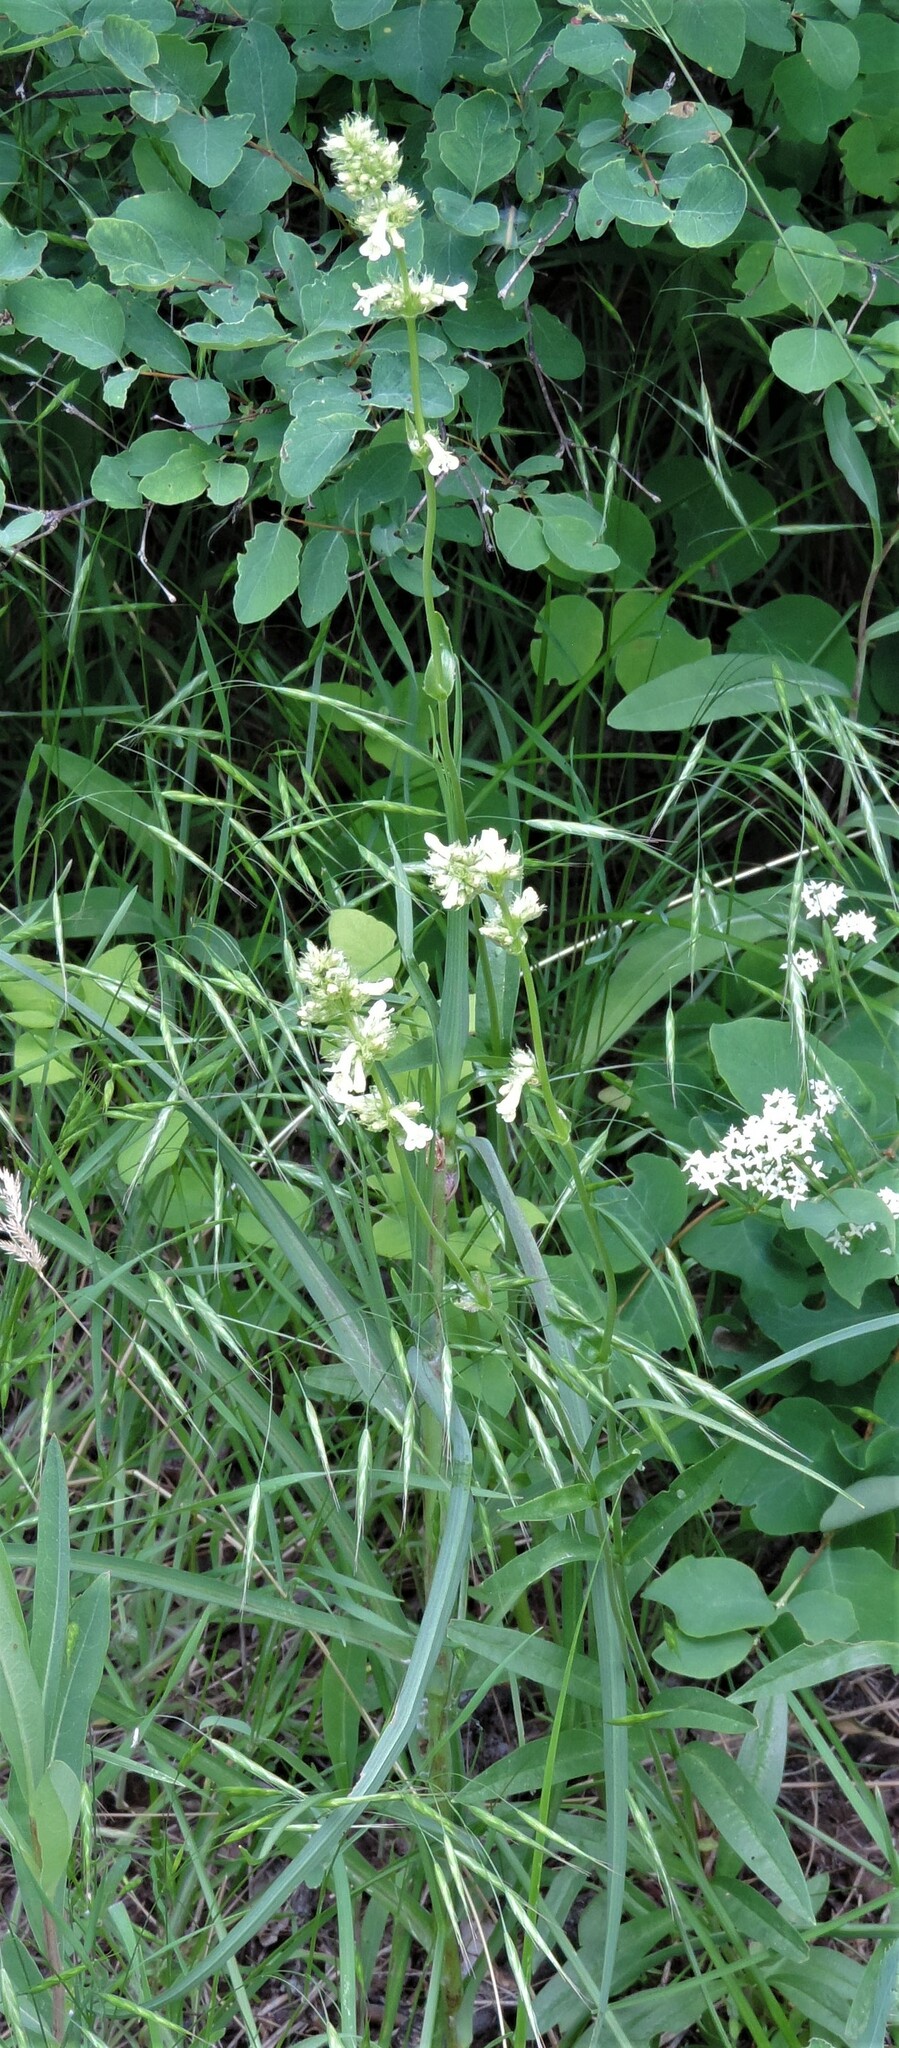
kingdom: Plantae
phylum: Tracheophyta
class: Magnoliopsida
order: Lamiales
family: Plantaginaceae
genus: Penstemon
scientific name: Penstemon confertus
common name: Lesser yellow beardtongue
